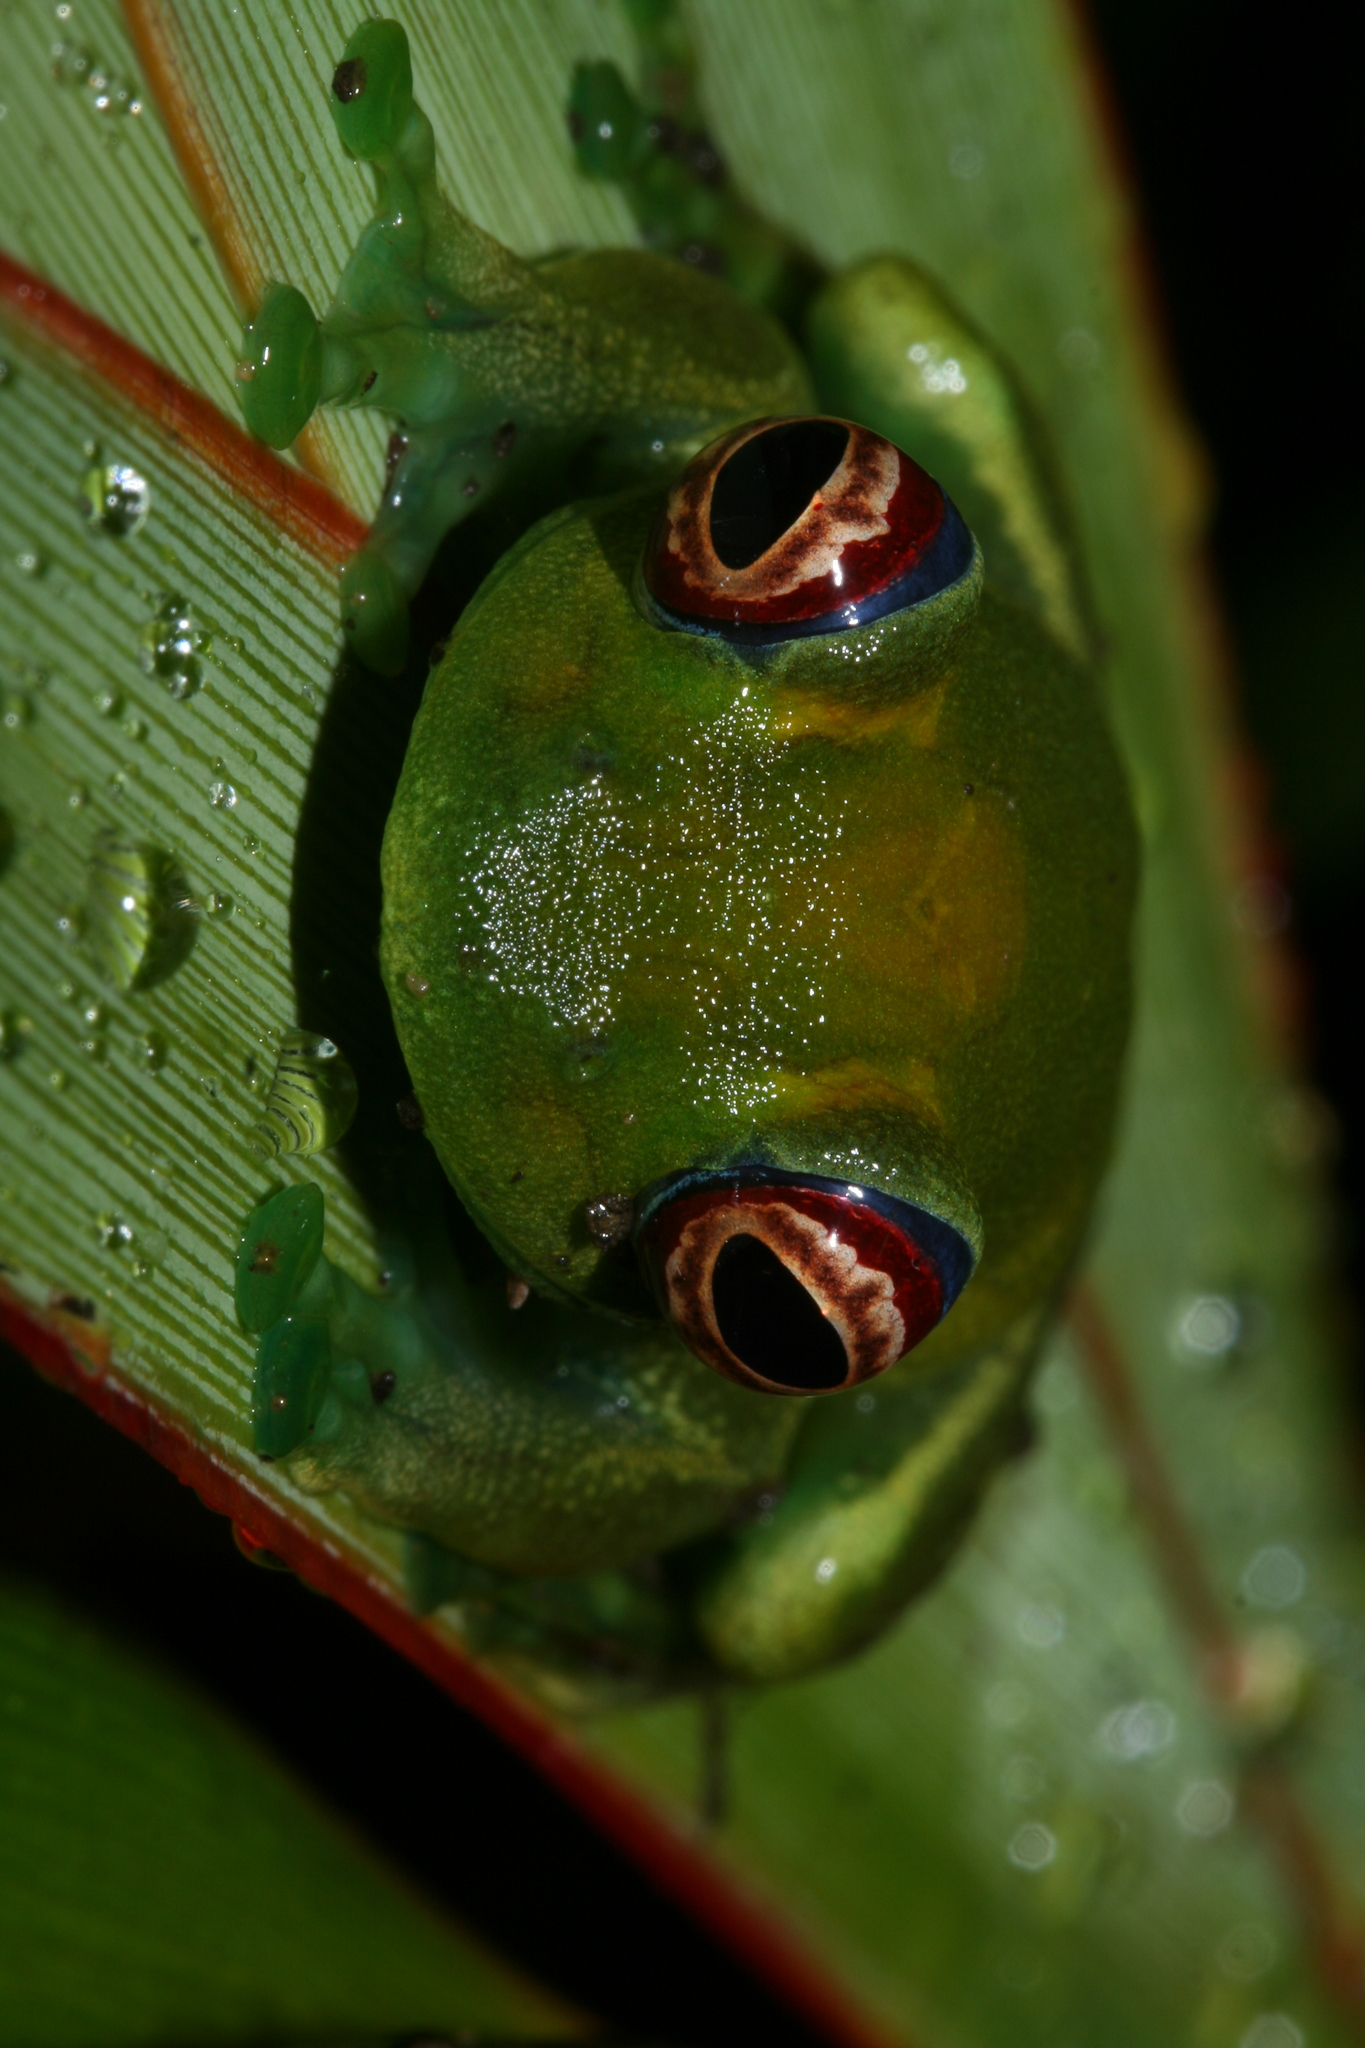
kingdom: Animalia
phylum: Chordata
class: Amphibia
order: Anura
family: Mantellidae
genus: Boophis
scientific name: Boophis luteus
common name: Ankafana bright-eyed frog
